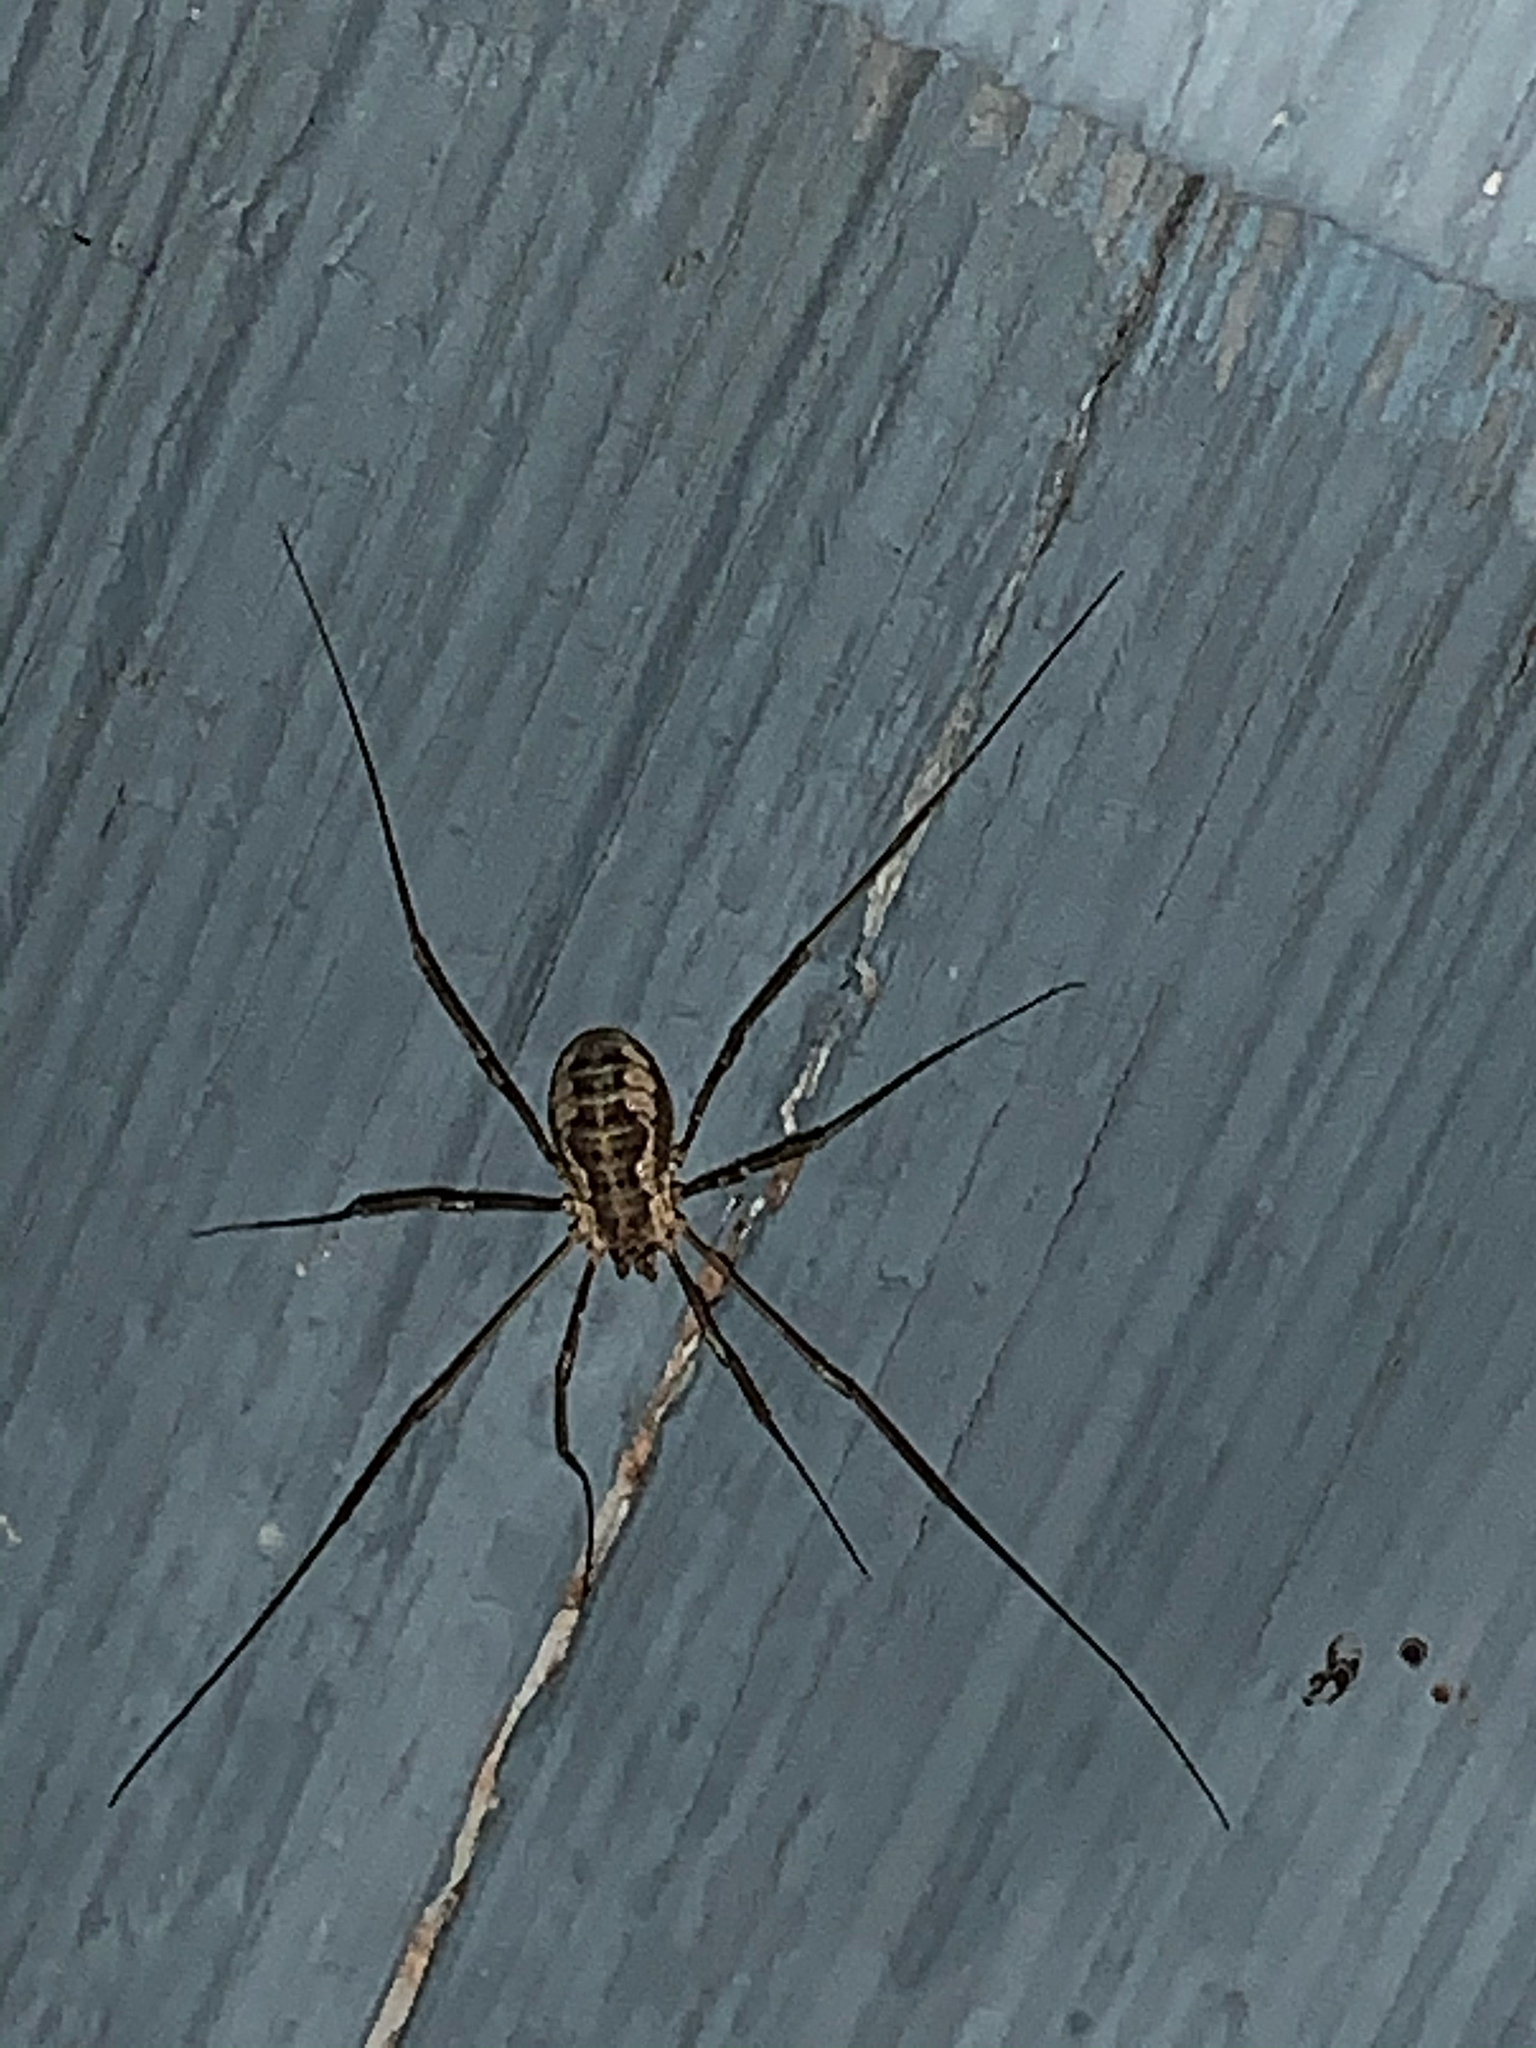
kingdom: Animalia
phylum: Arthropoda
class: Arachnida
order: Opiliones
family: Phalangiidae
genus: Phalangium
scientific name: Phalangium opilio
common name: Daddy longleg
